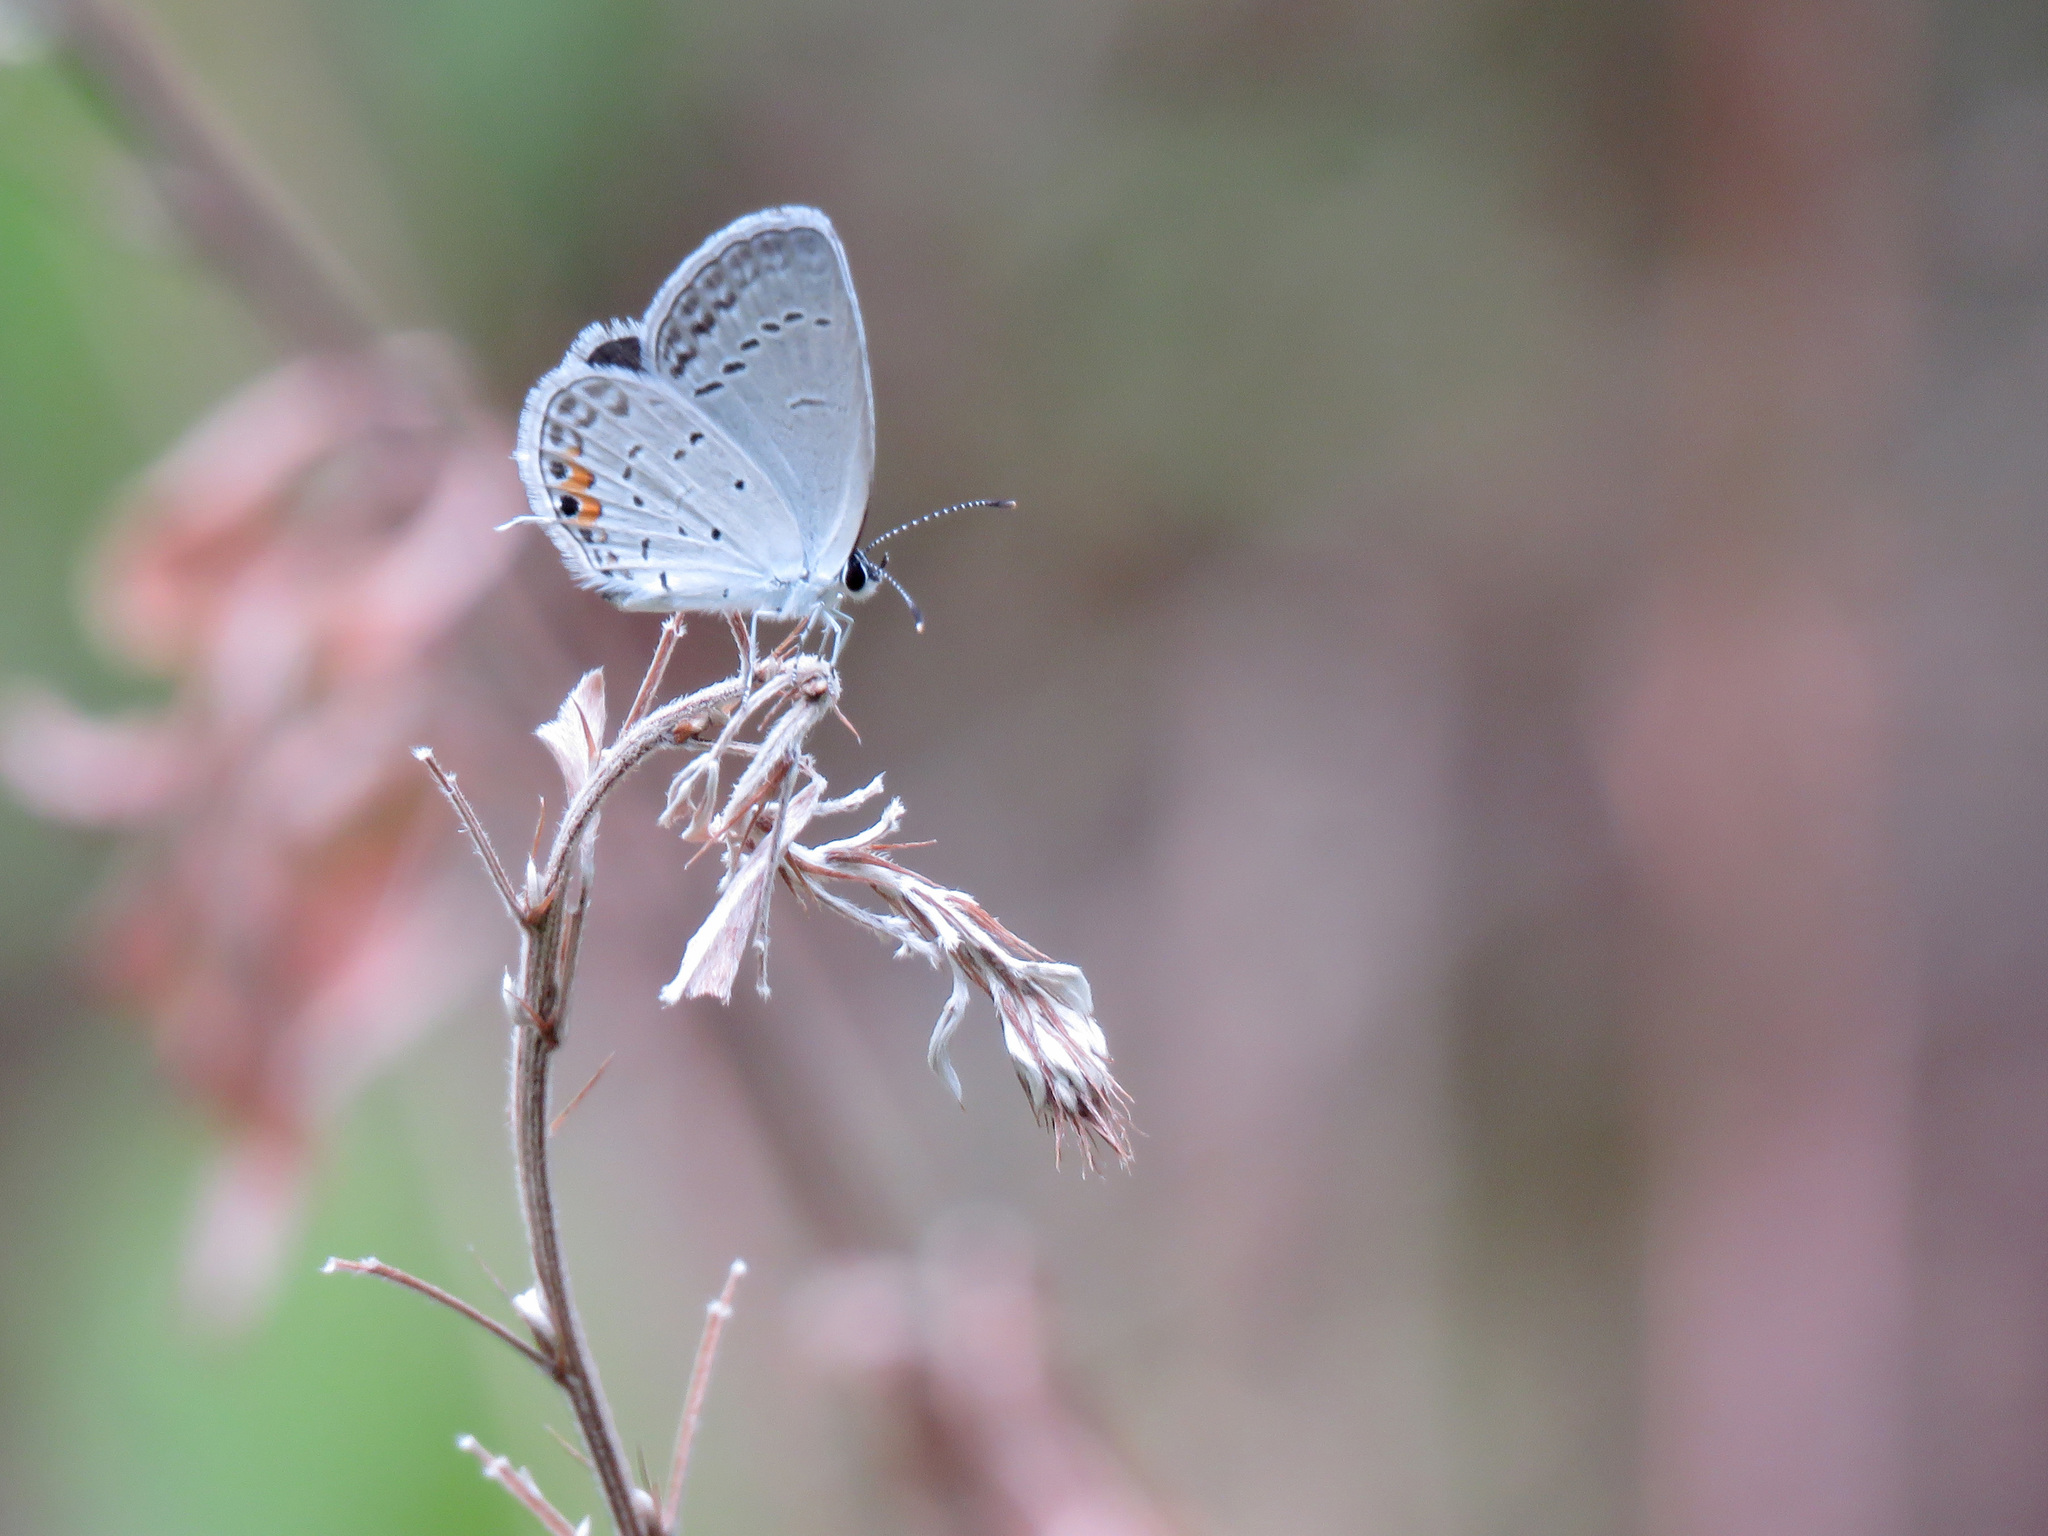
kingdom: Animalia
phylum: Arthropoda
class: Insecta
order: Lepidoptera
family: Lycaenidae
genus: Elkalyce
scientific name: Elkalyce comyntas
